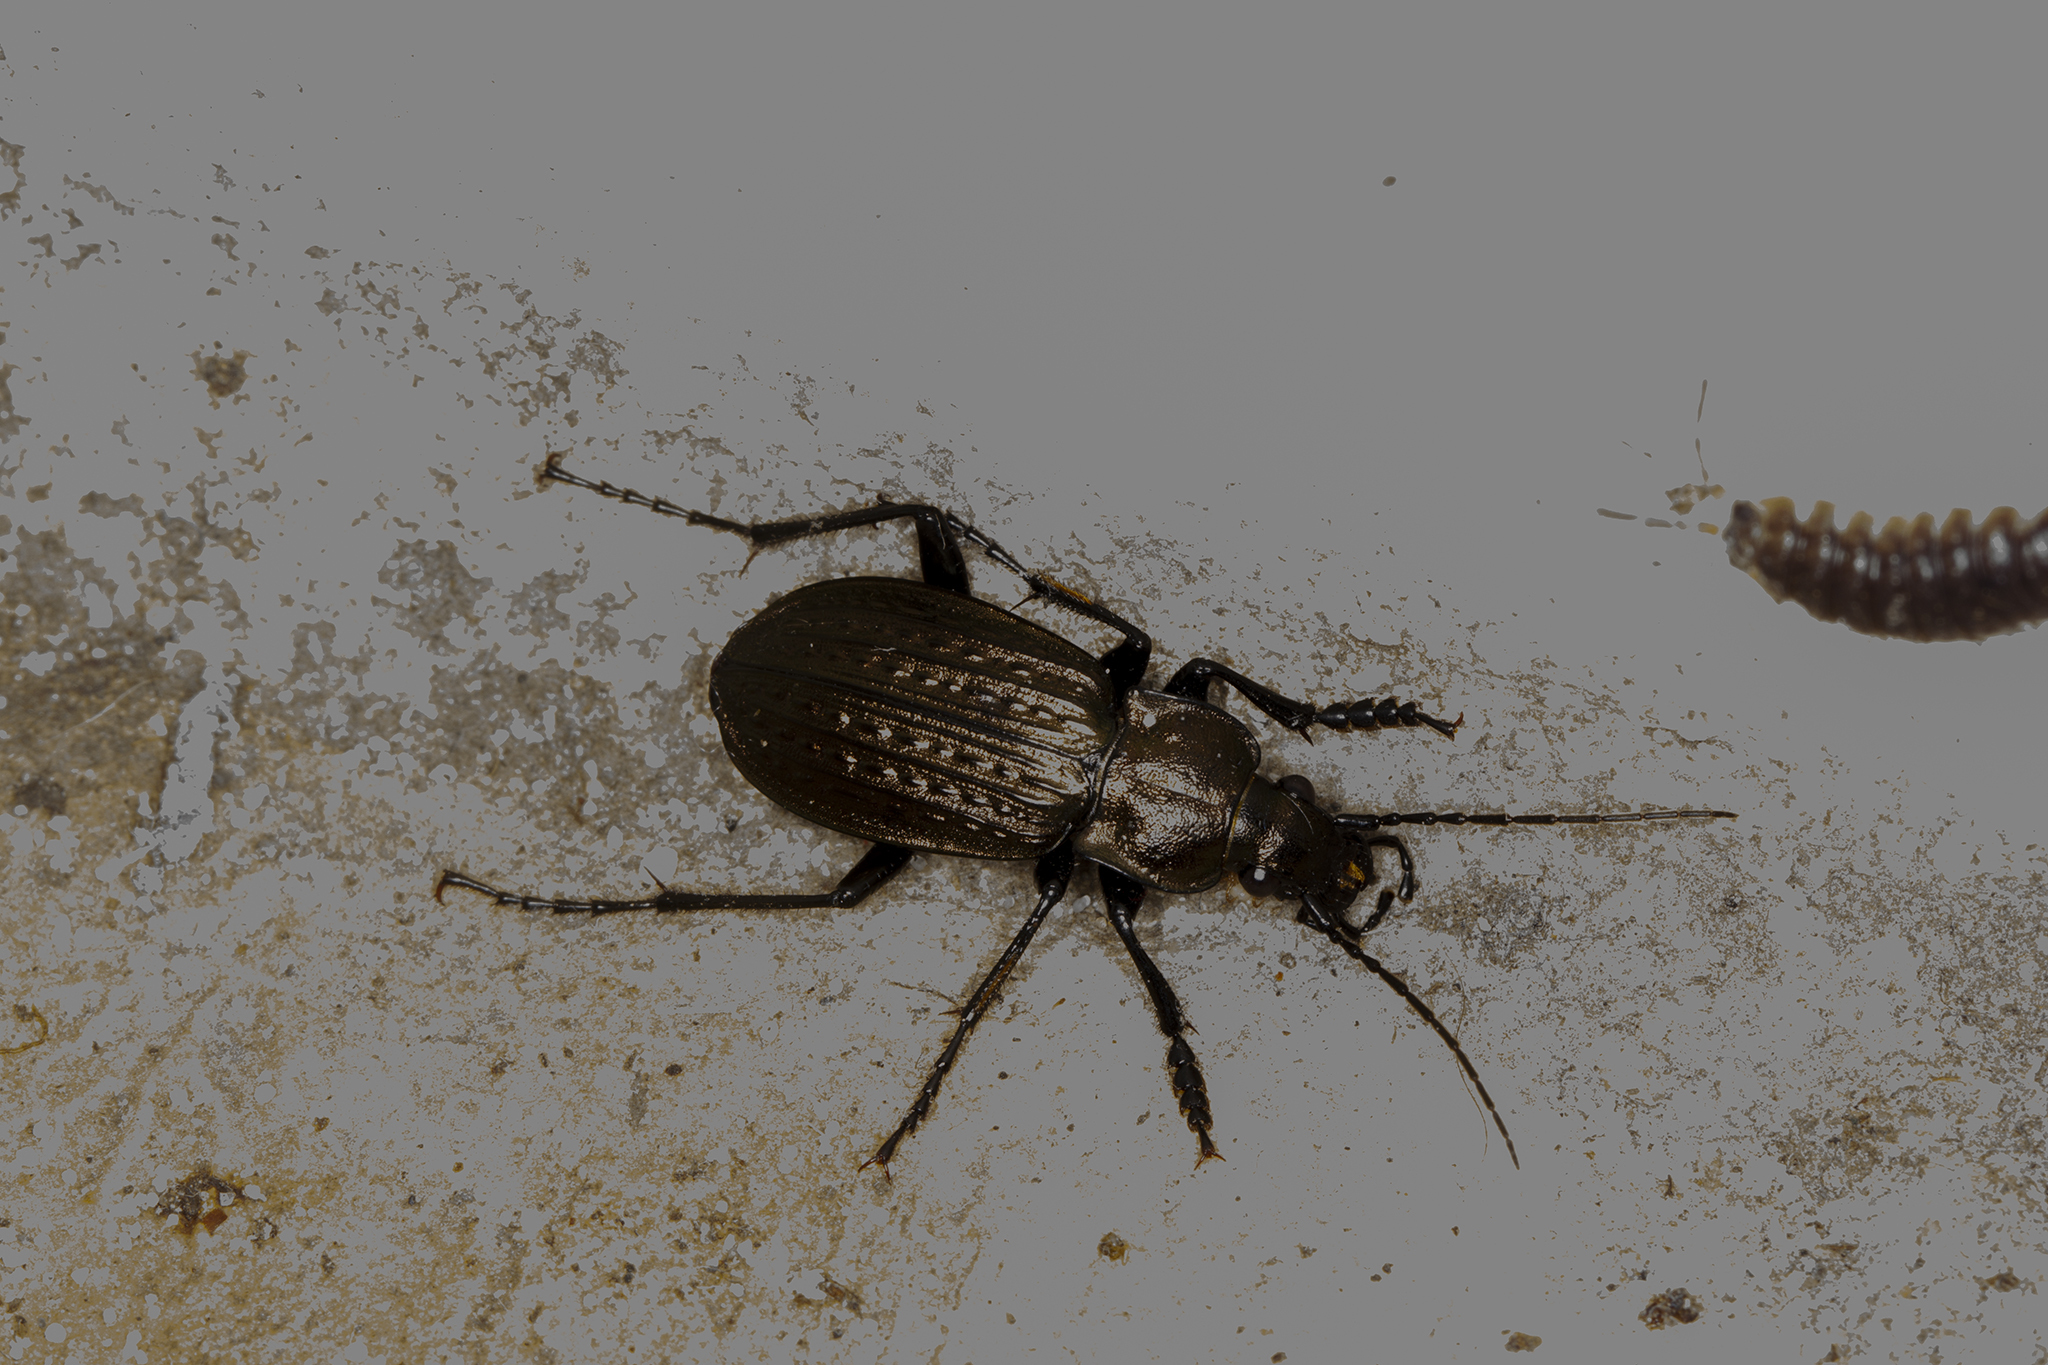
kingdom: Animalia
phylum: Arthropoda
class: Insecta
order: Coleoptera
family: Carabidae
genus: Carabus
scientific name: Carabus granulatus
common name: Granulate ground beetle
